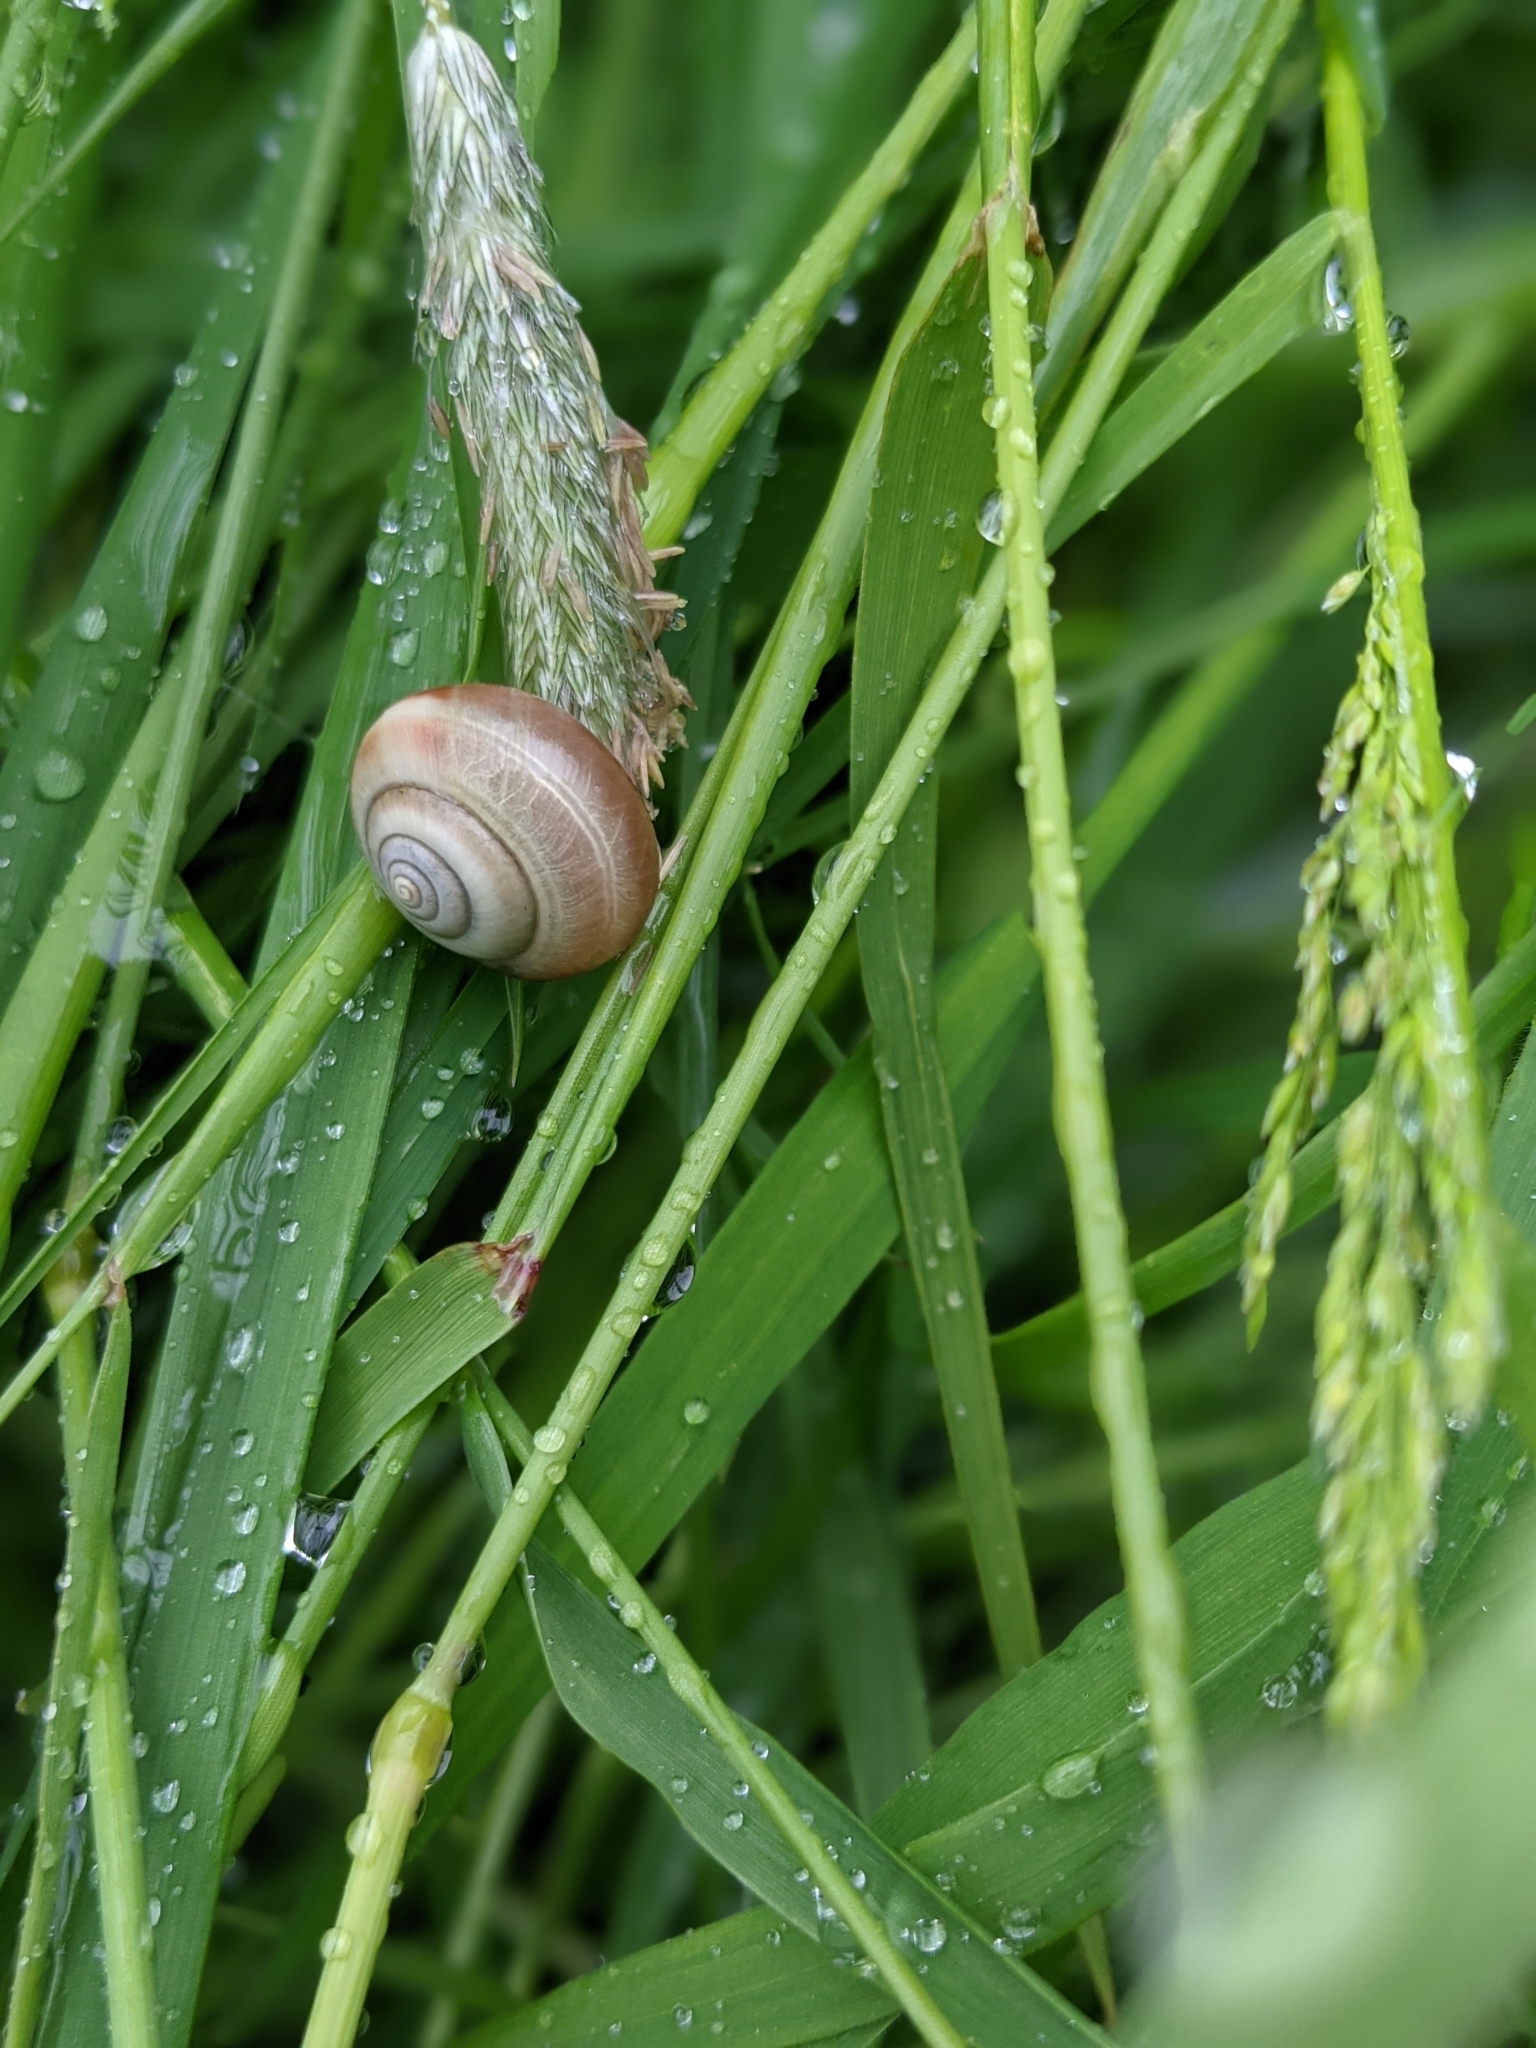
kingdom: Animalia
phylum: Mollusca
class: Gastropoda
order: Stylommatophora
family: Hygromiidae
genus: Monacha
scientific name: Monacha cantiana
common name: Kentish snail
